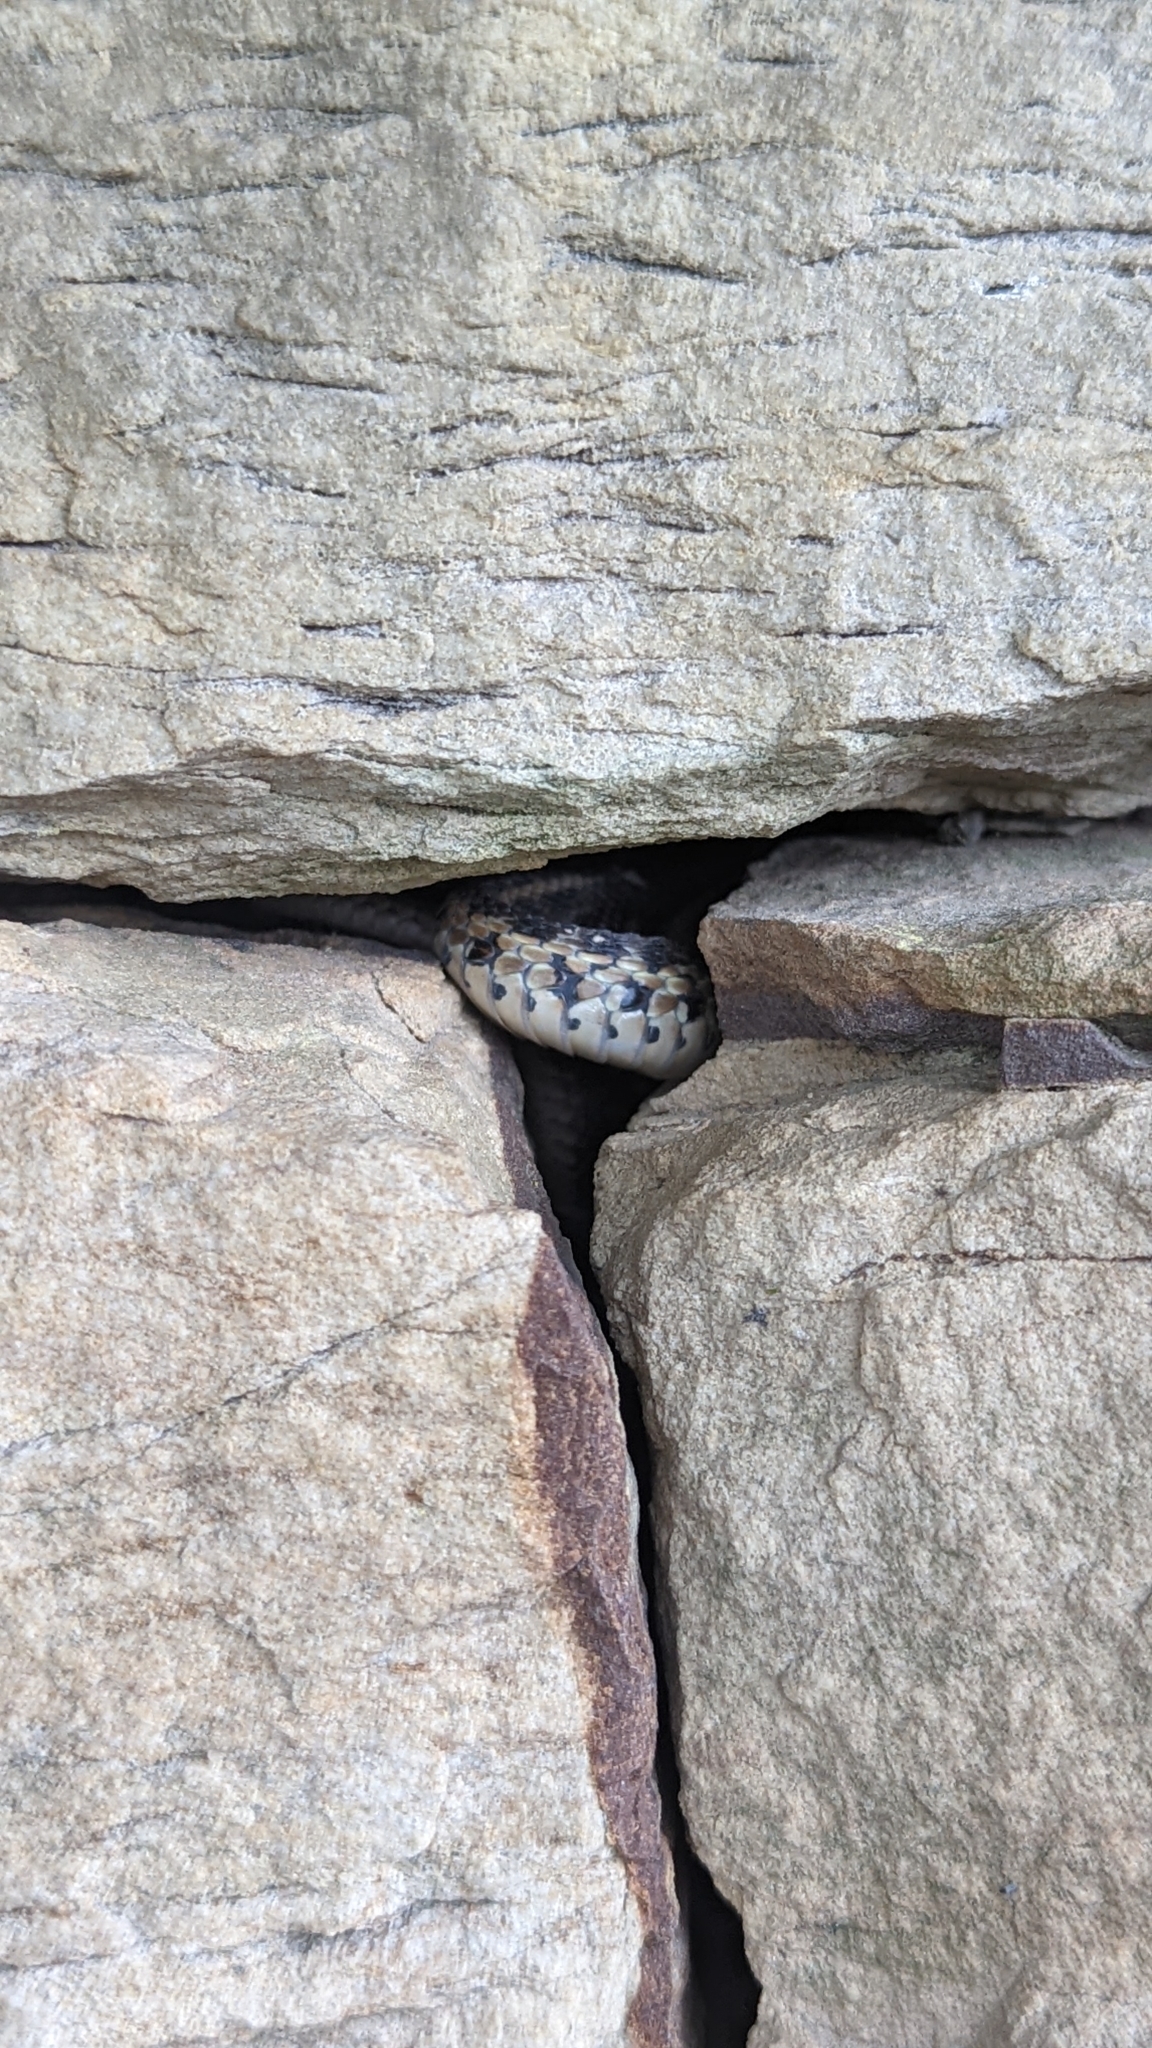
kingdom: Animalia
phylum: Chordata
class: Squamata
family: Colubridae
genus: Thamnophis
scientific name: Thamnophis sirtalis
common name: Common garter snake
